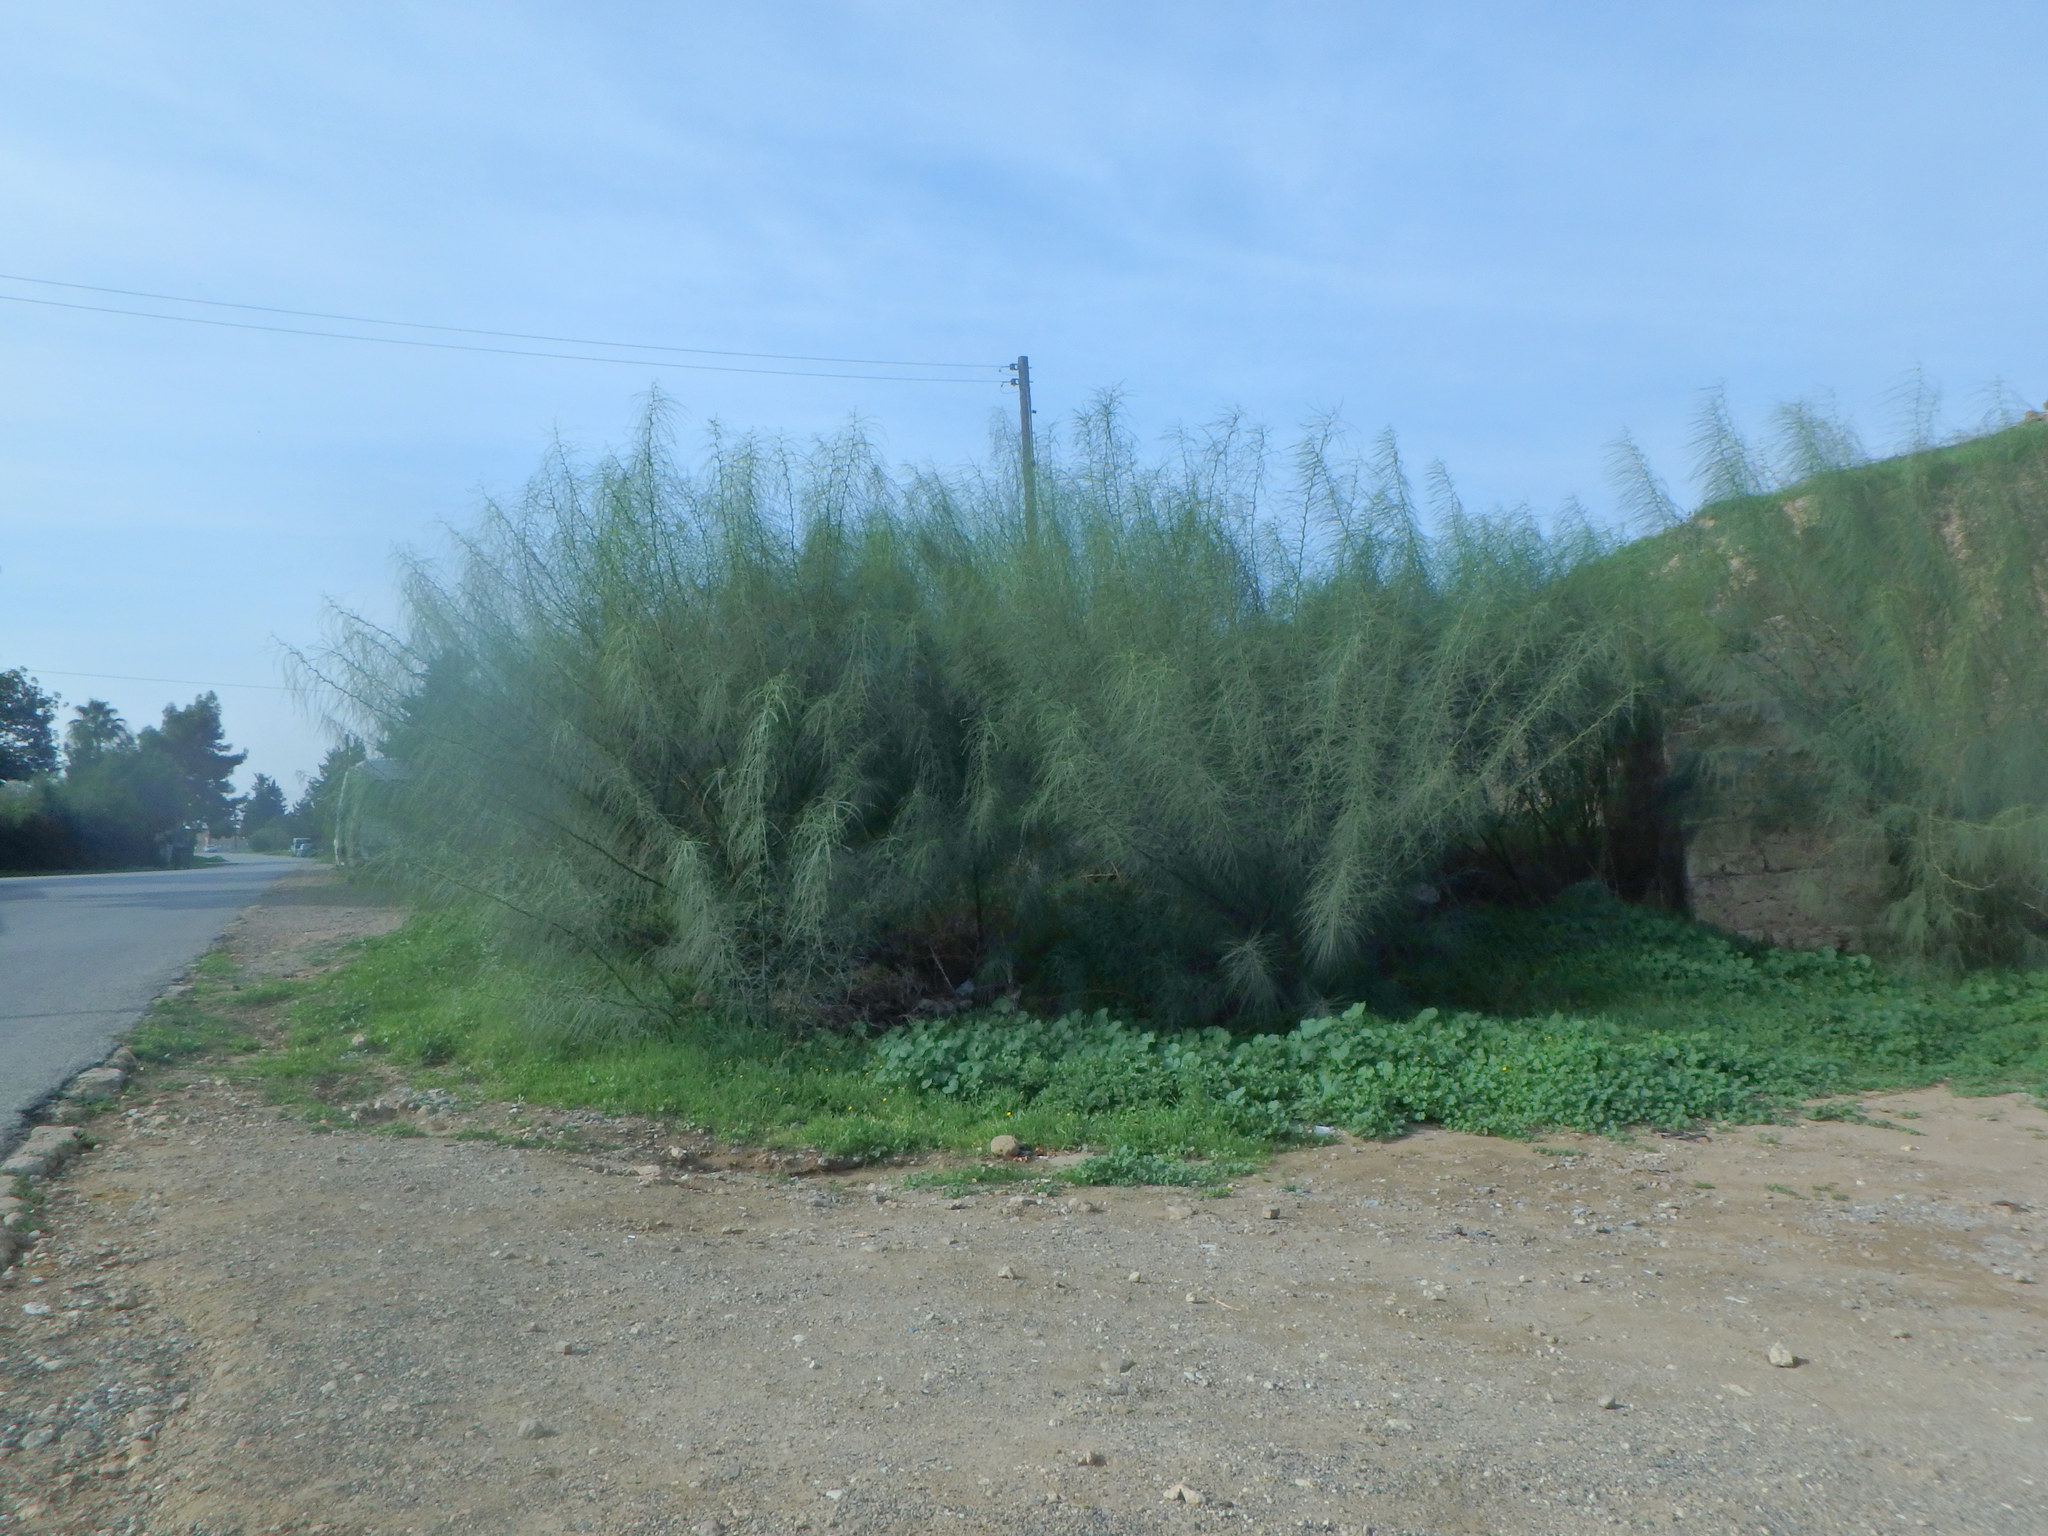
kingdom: Plantae
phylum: Tracheophyta
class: Magnoliopsida
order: Fabales
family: Fabaceae
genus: Parkinsonia
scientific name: Parkinsonia aculeata
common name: Jerusalem thorn
